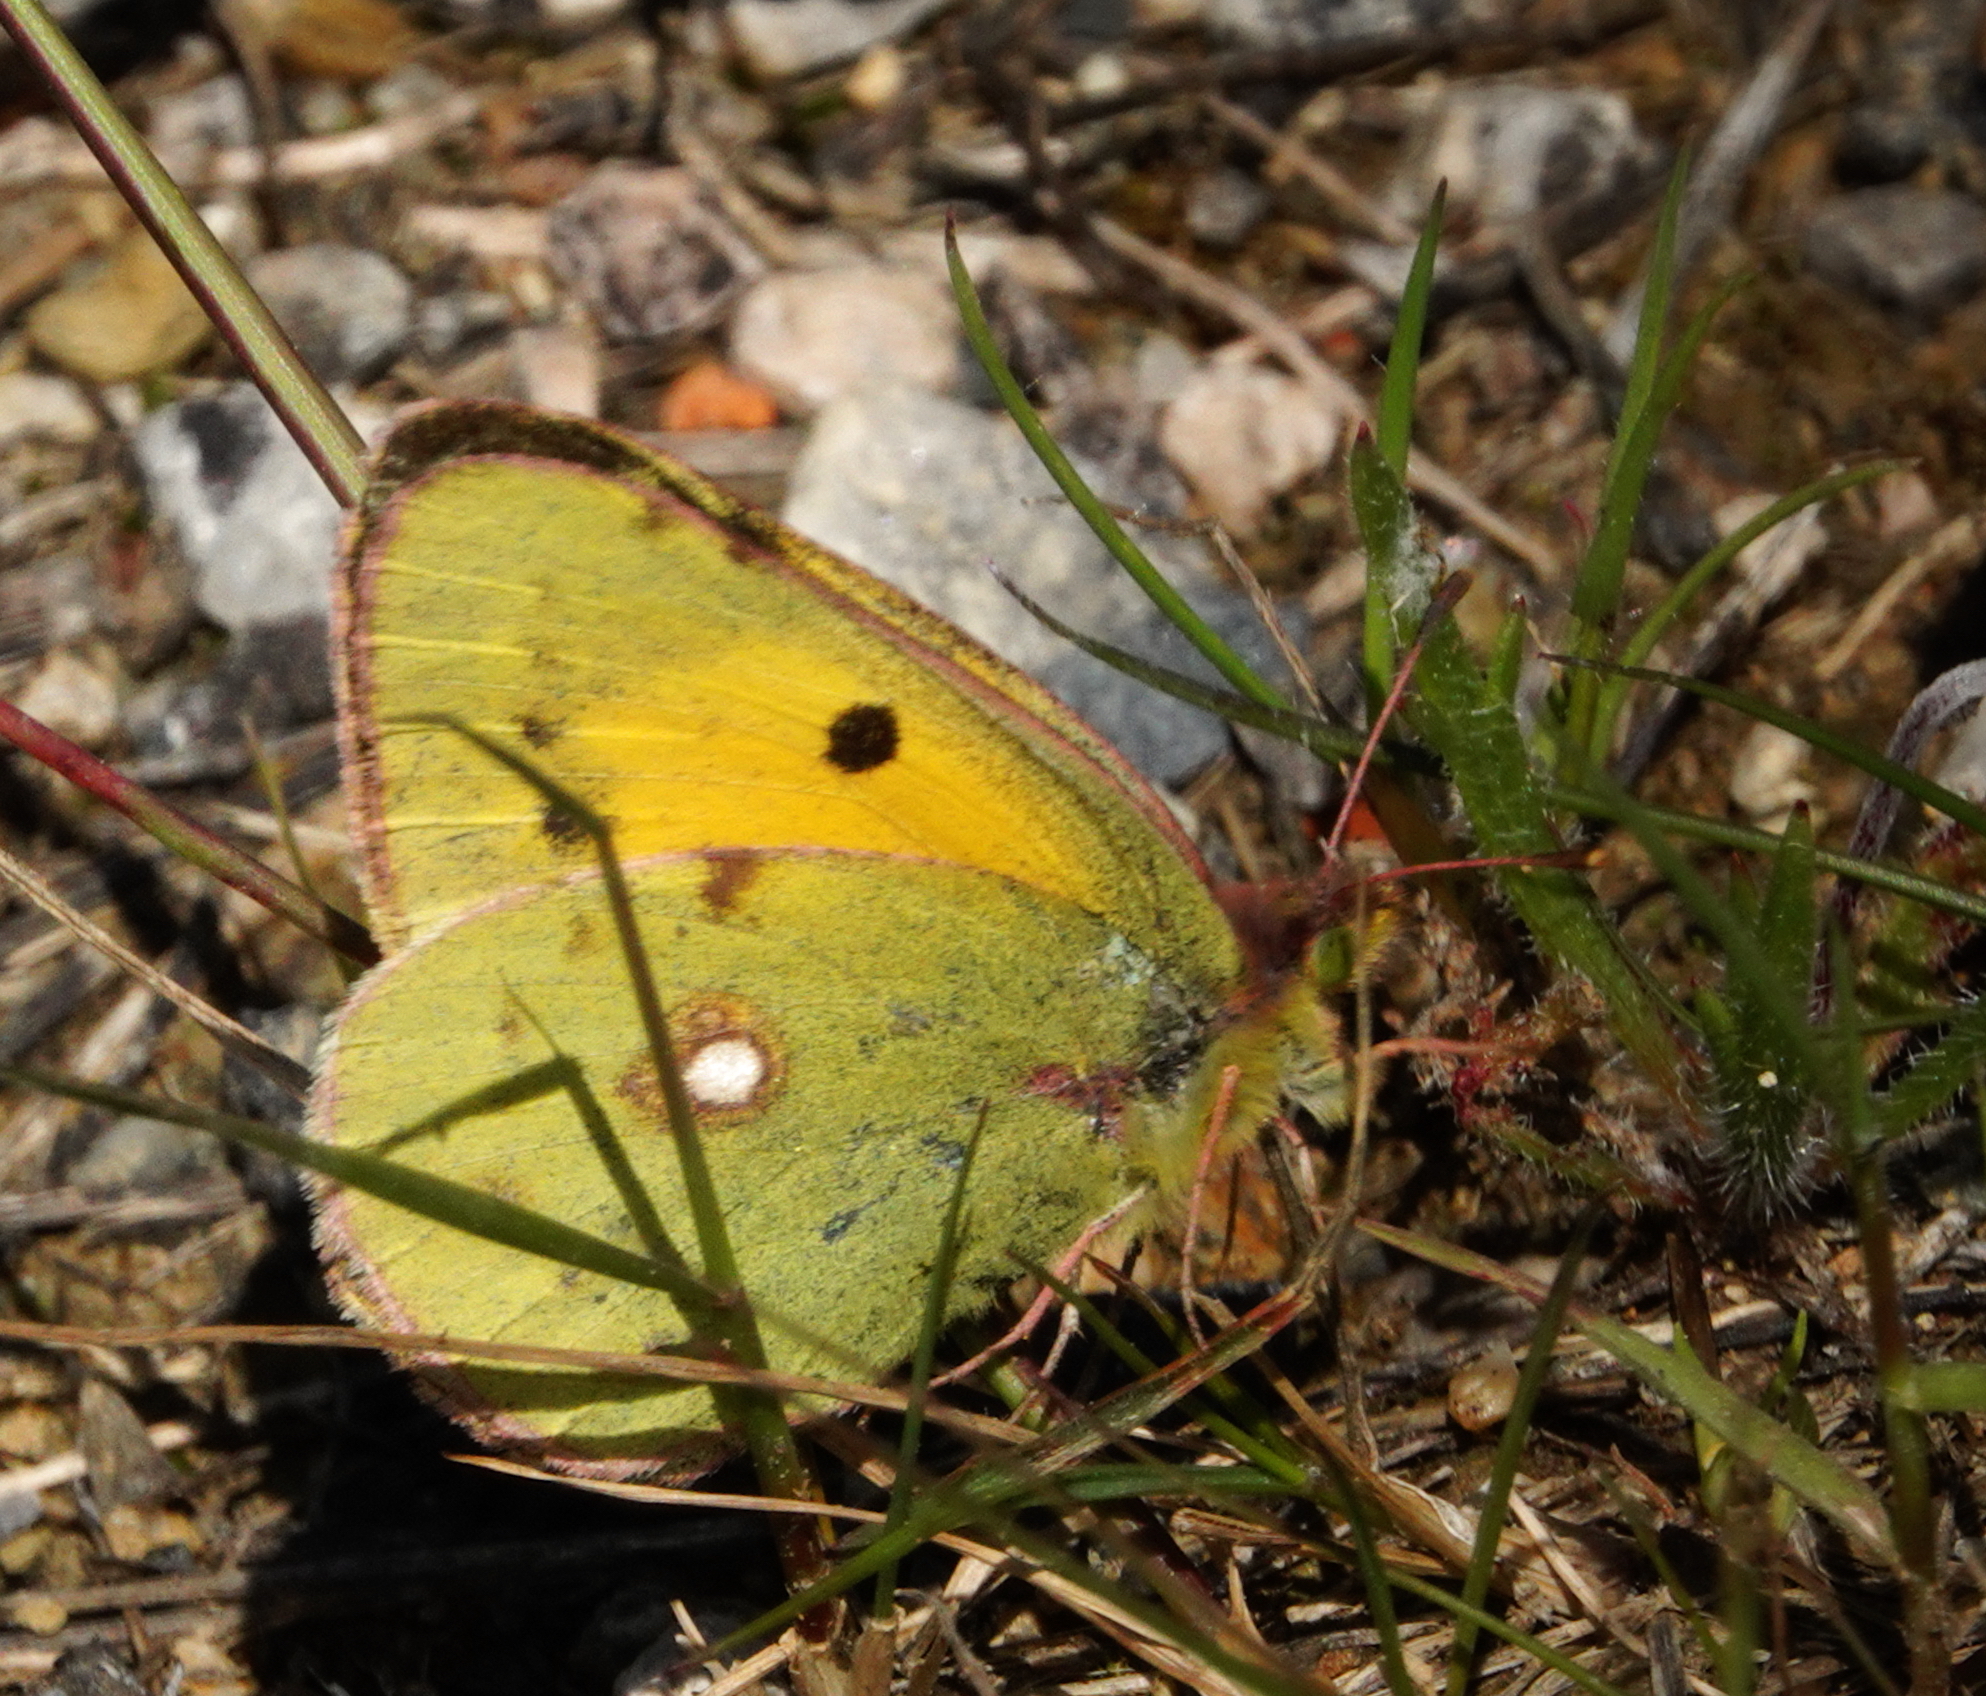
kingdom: Animalia
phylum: Arthropoda
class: Insecta
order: Lepidoptera
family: Pieridae
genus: Colias
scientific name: Colias croceus
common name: Clouded yellow
